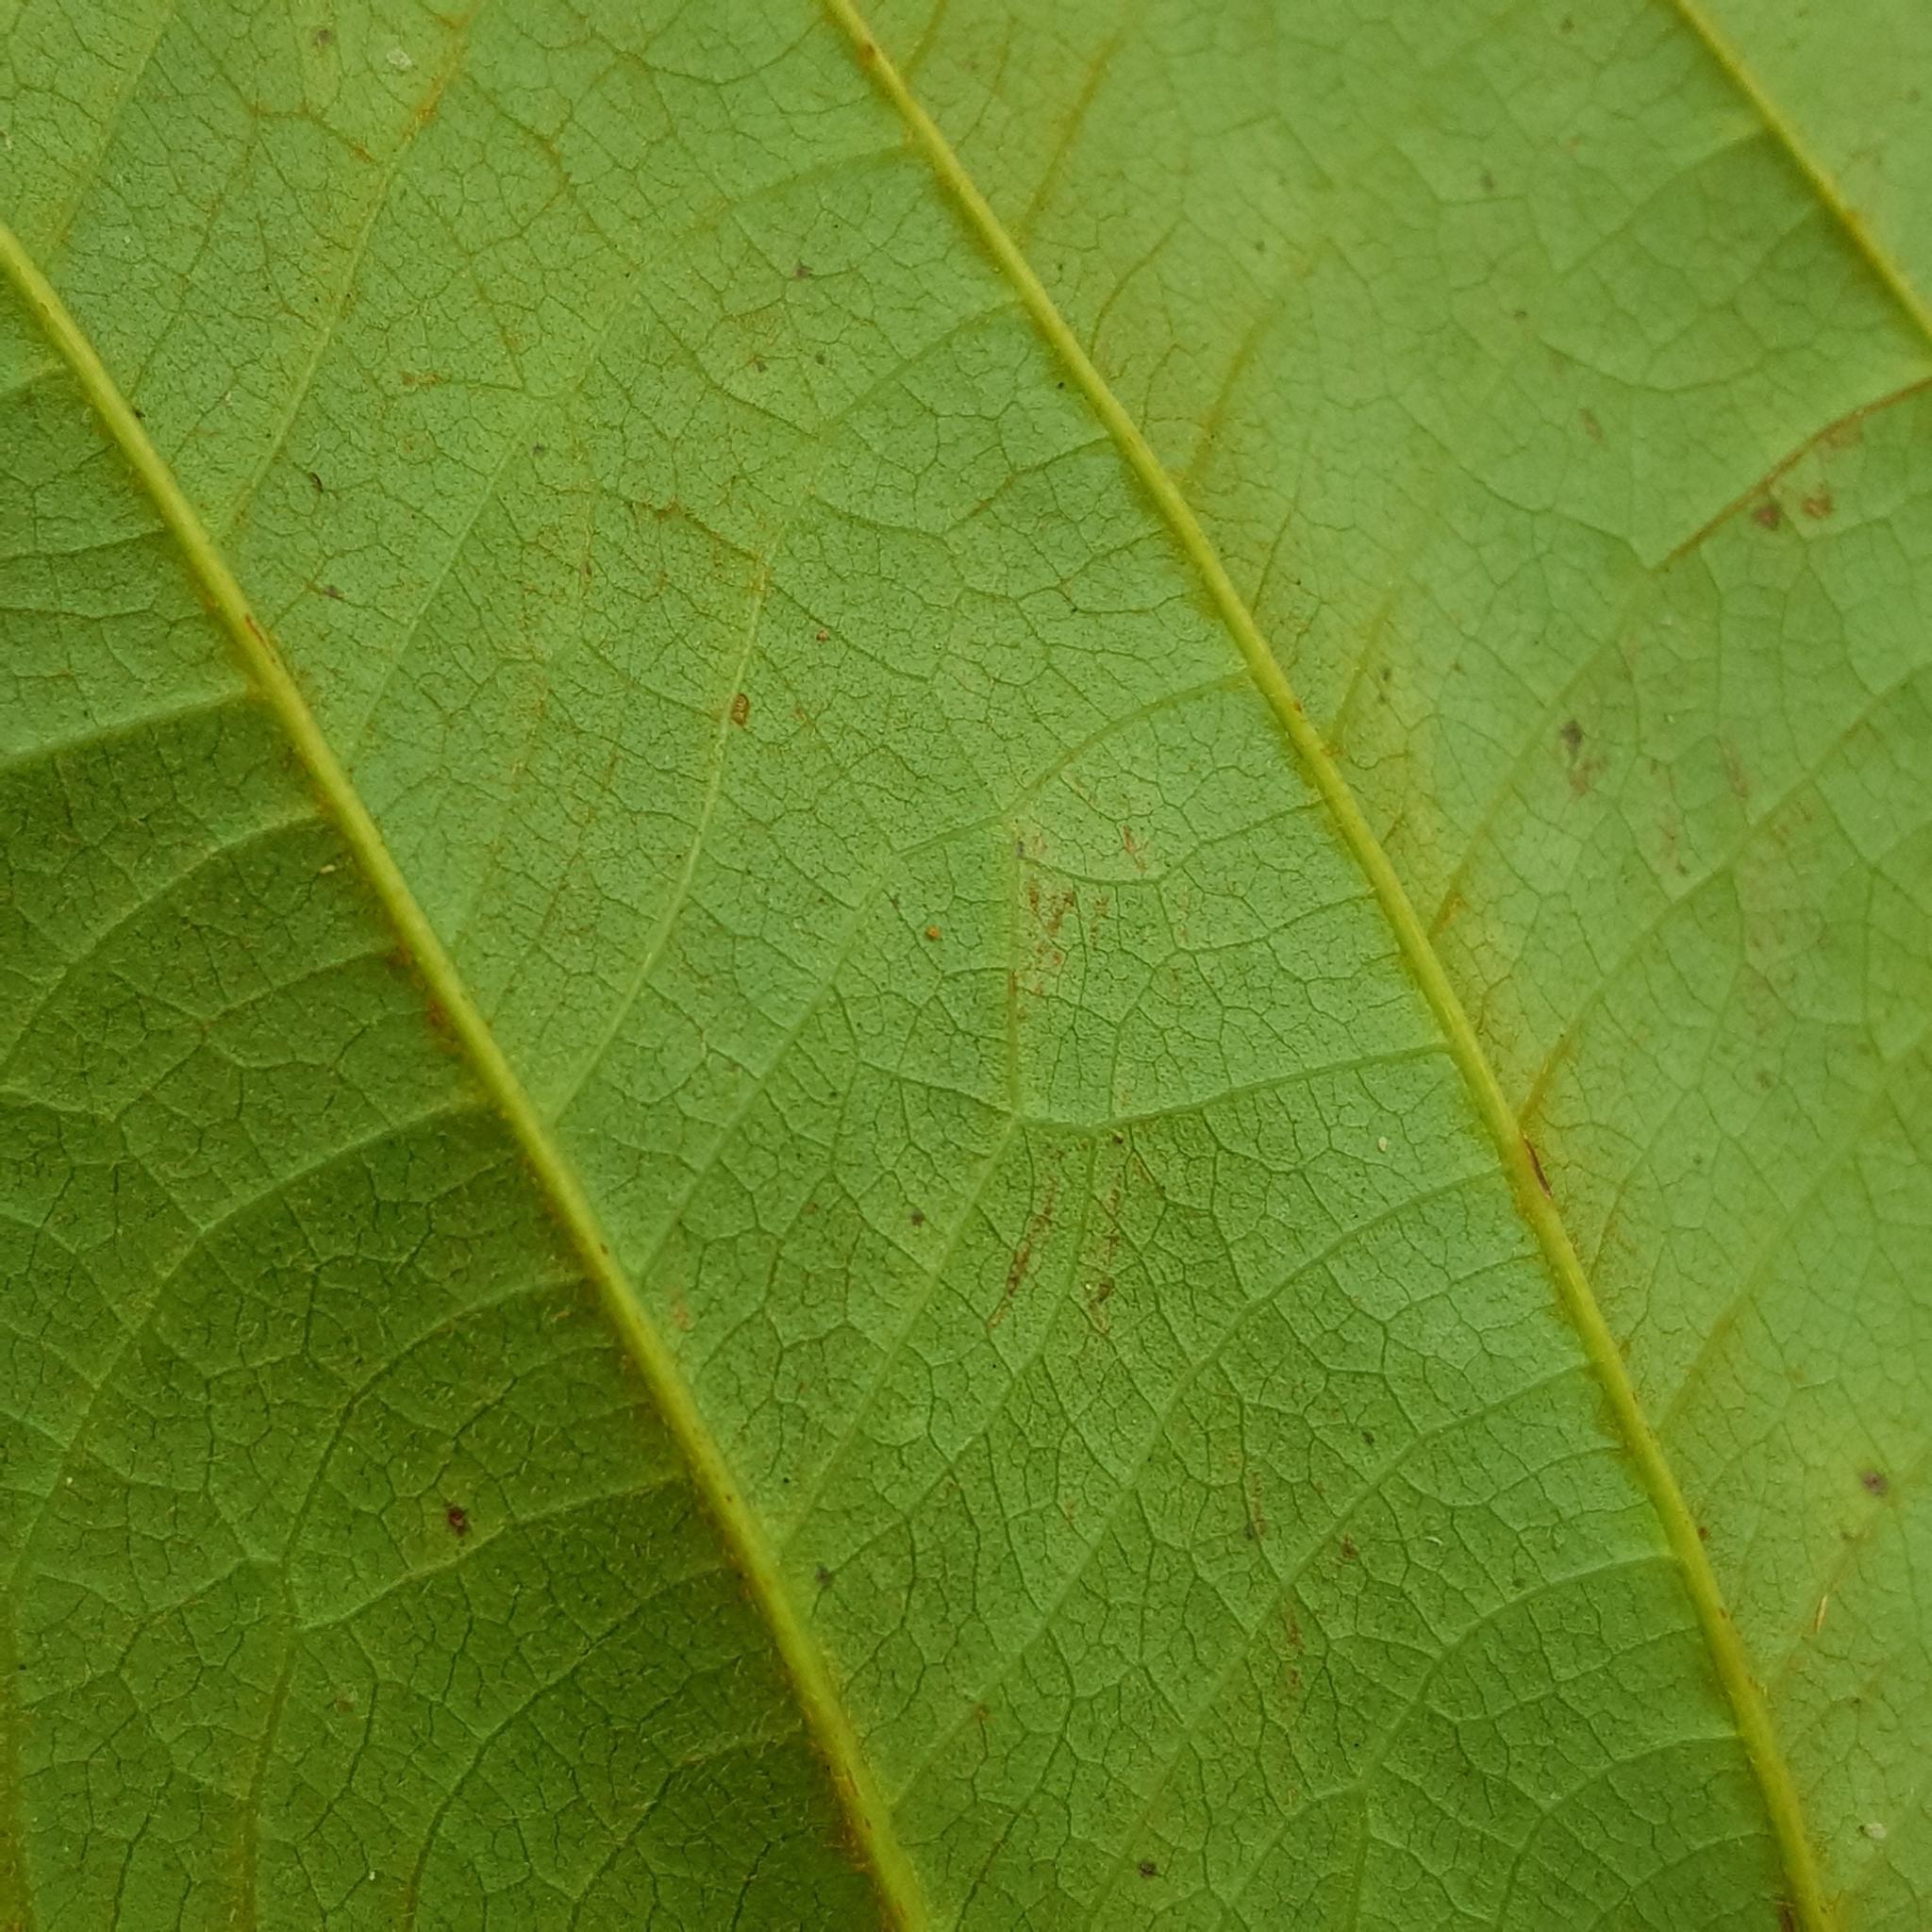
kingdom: Plantae
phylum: Tracheophyta
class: Magnoliopsida
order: Oxalidales
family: Elaeocarpaceae
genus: Elaeocarpus
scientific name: Elaeocarpus ferrugineus
